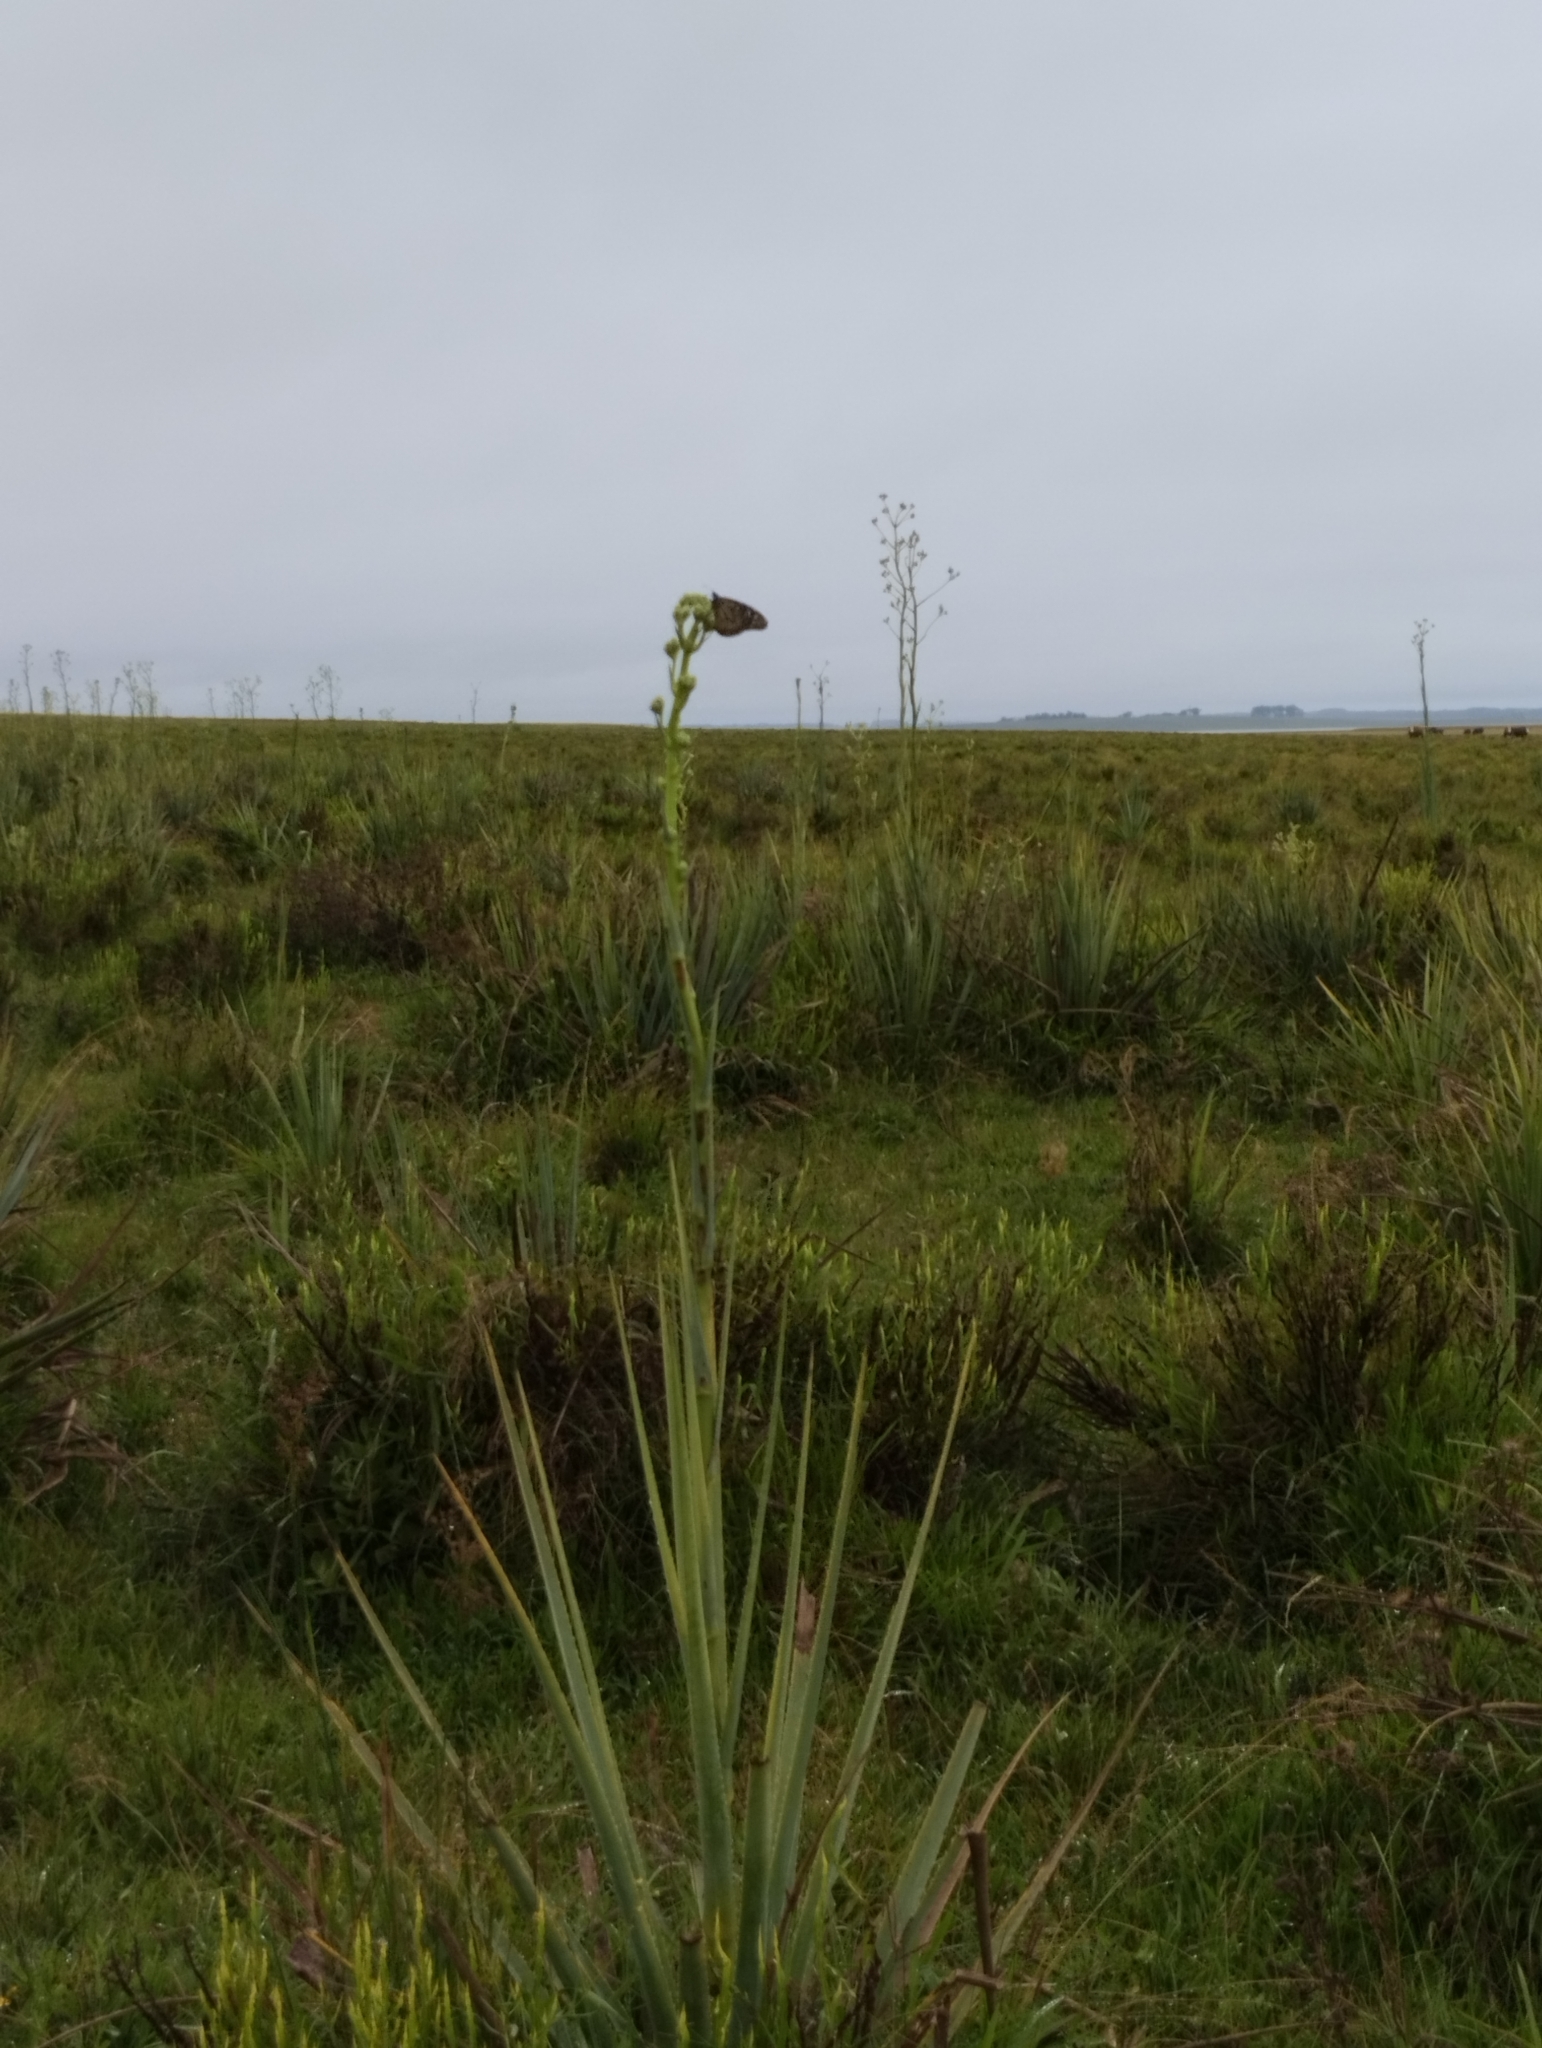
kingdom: Plantae
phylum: Tracheophyta
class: Magnoliopsida
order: Apiales
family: Apiaceae
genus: Eryngium
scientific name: Eryngium pandanifolium
